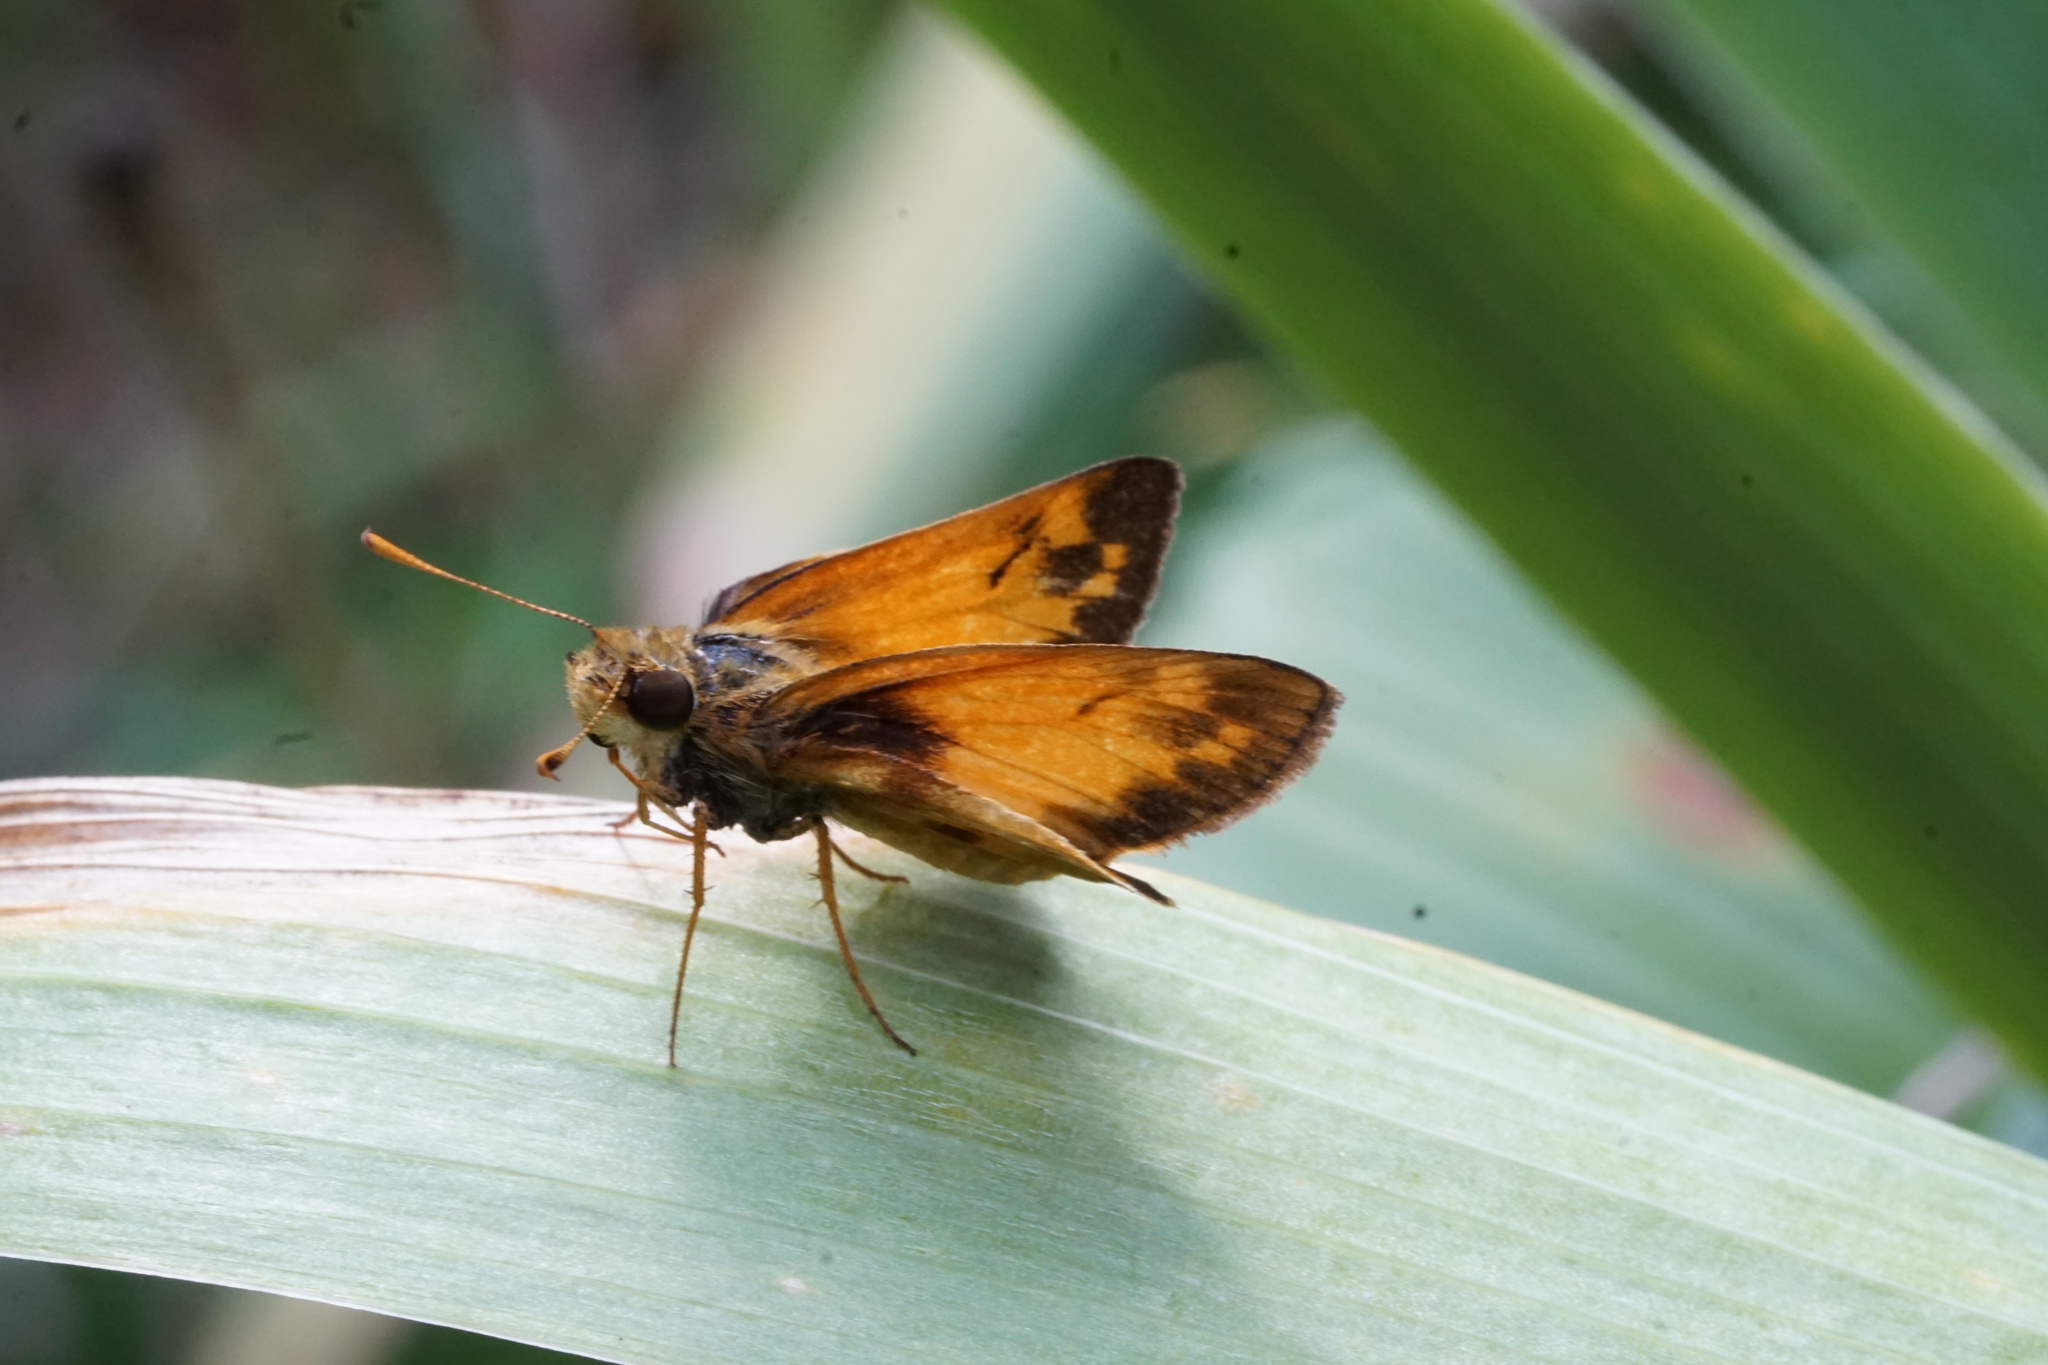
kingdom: Animalia
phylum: Arthropoda
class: Insecta
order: Lepidoptera
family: Hesperiidae
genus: Lon
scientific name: Lon zabulon
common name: Zabulon skipper
